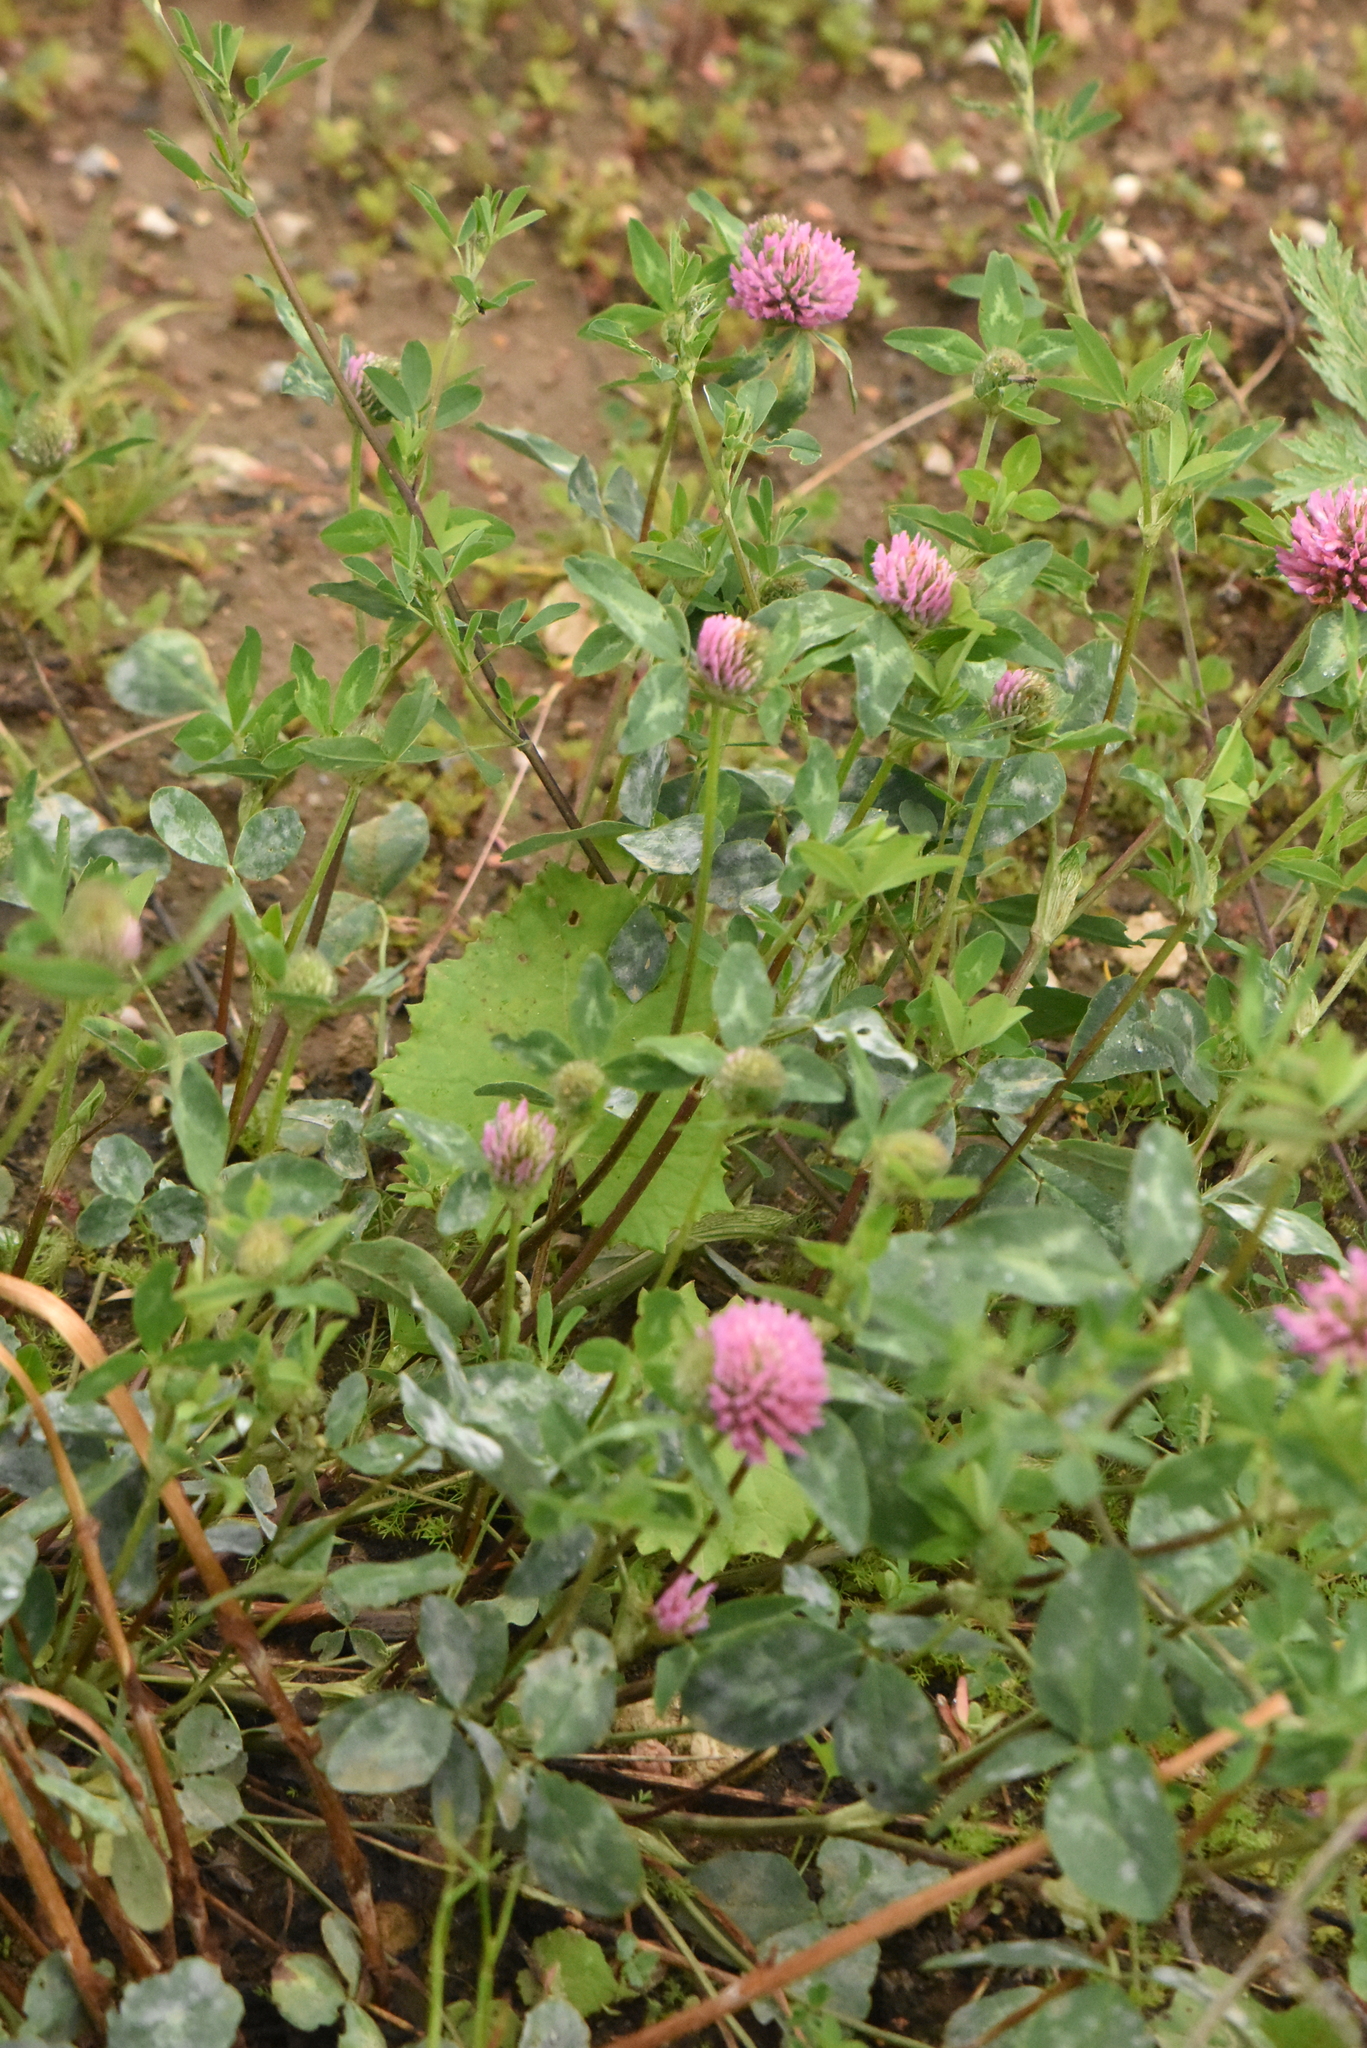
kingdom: Plantae
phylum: Tracheophyta
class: Magnoliopsida
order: Fabales
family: Fabaceae
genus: Trifolium
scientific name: Trifolium pratense
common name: Red clover
